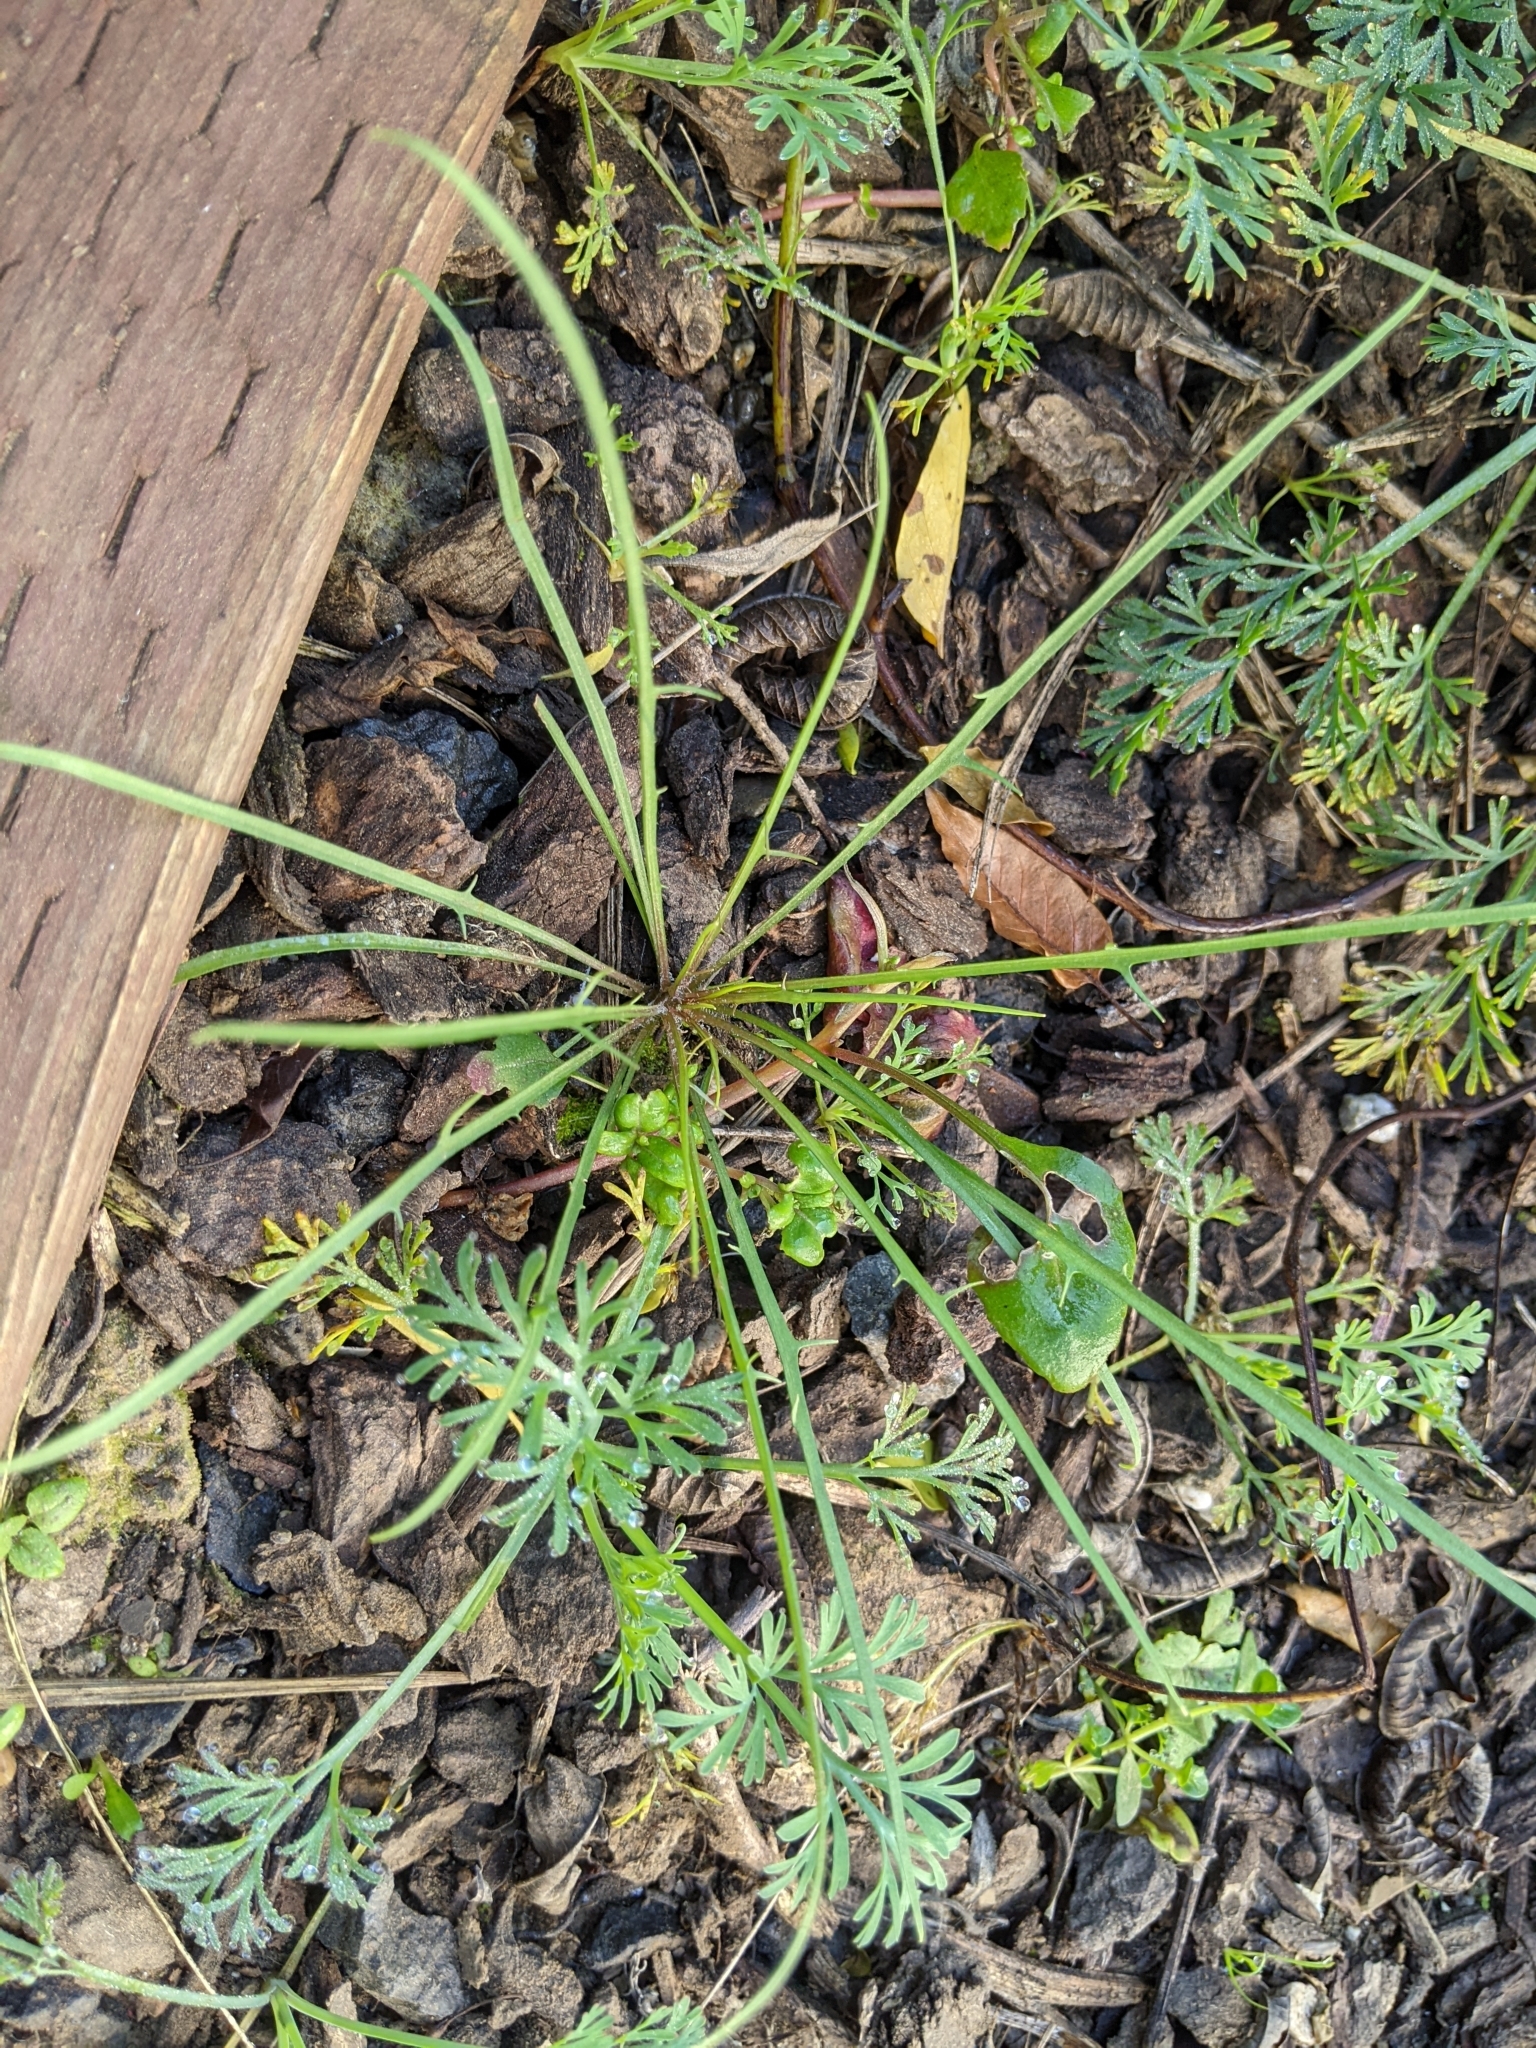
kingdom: Plantae
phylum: Tracheophyta
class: Magnoliopsida
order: Asterales
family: Asteraceae
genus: Microseris
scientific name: Microseris lindleyi
